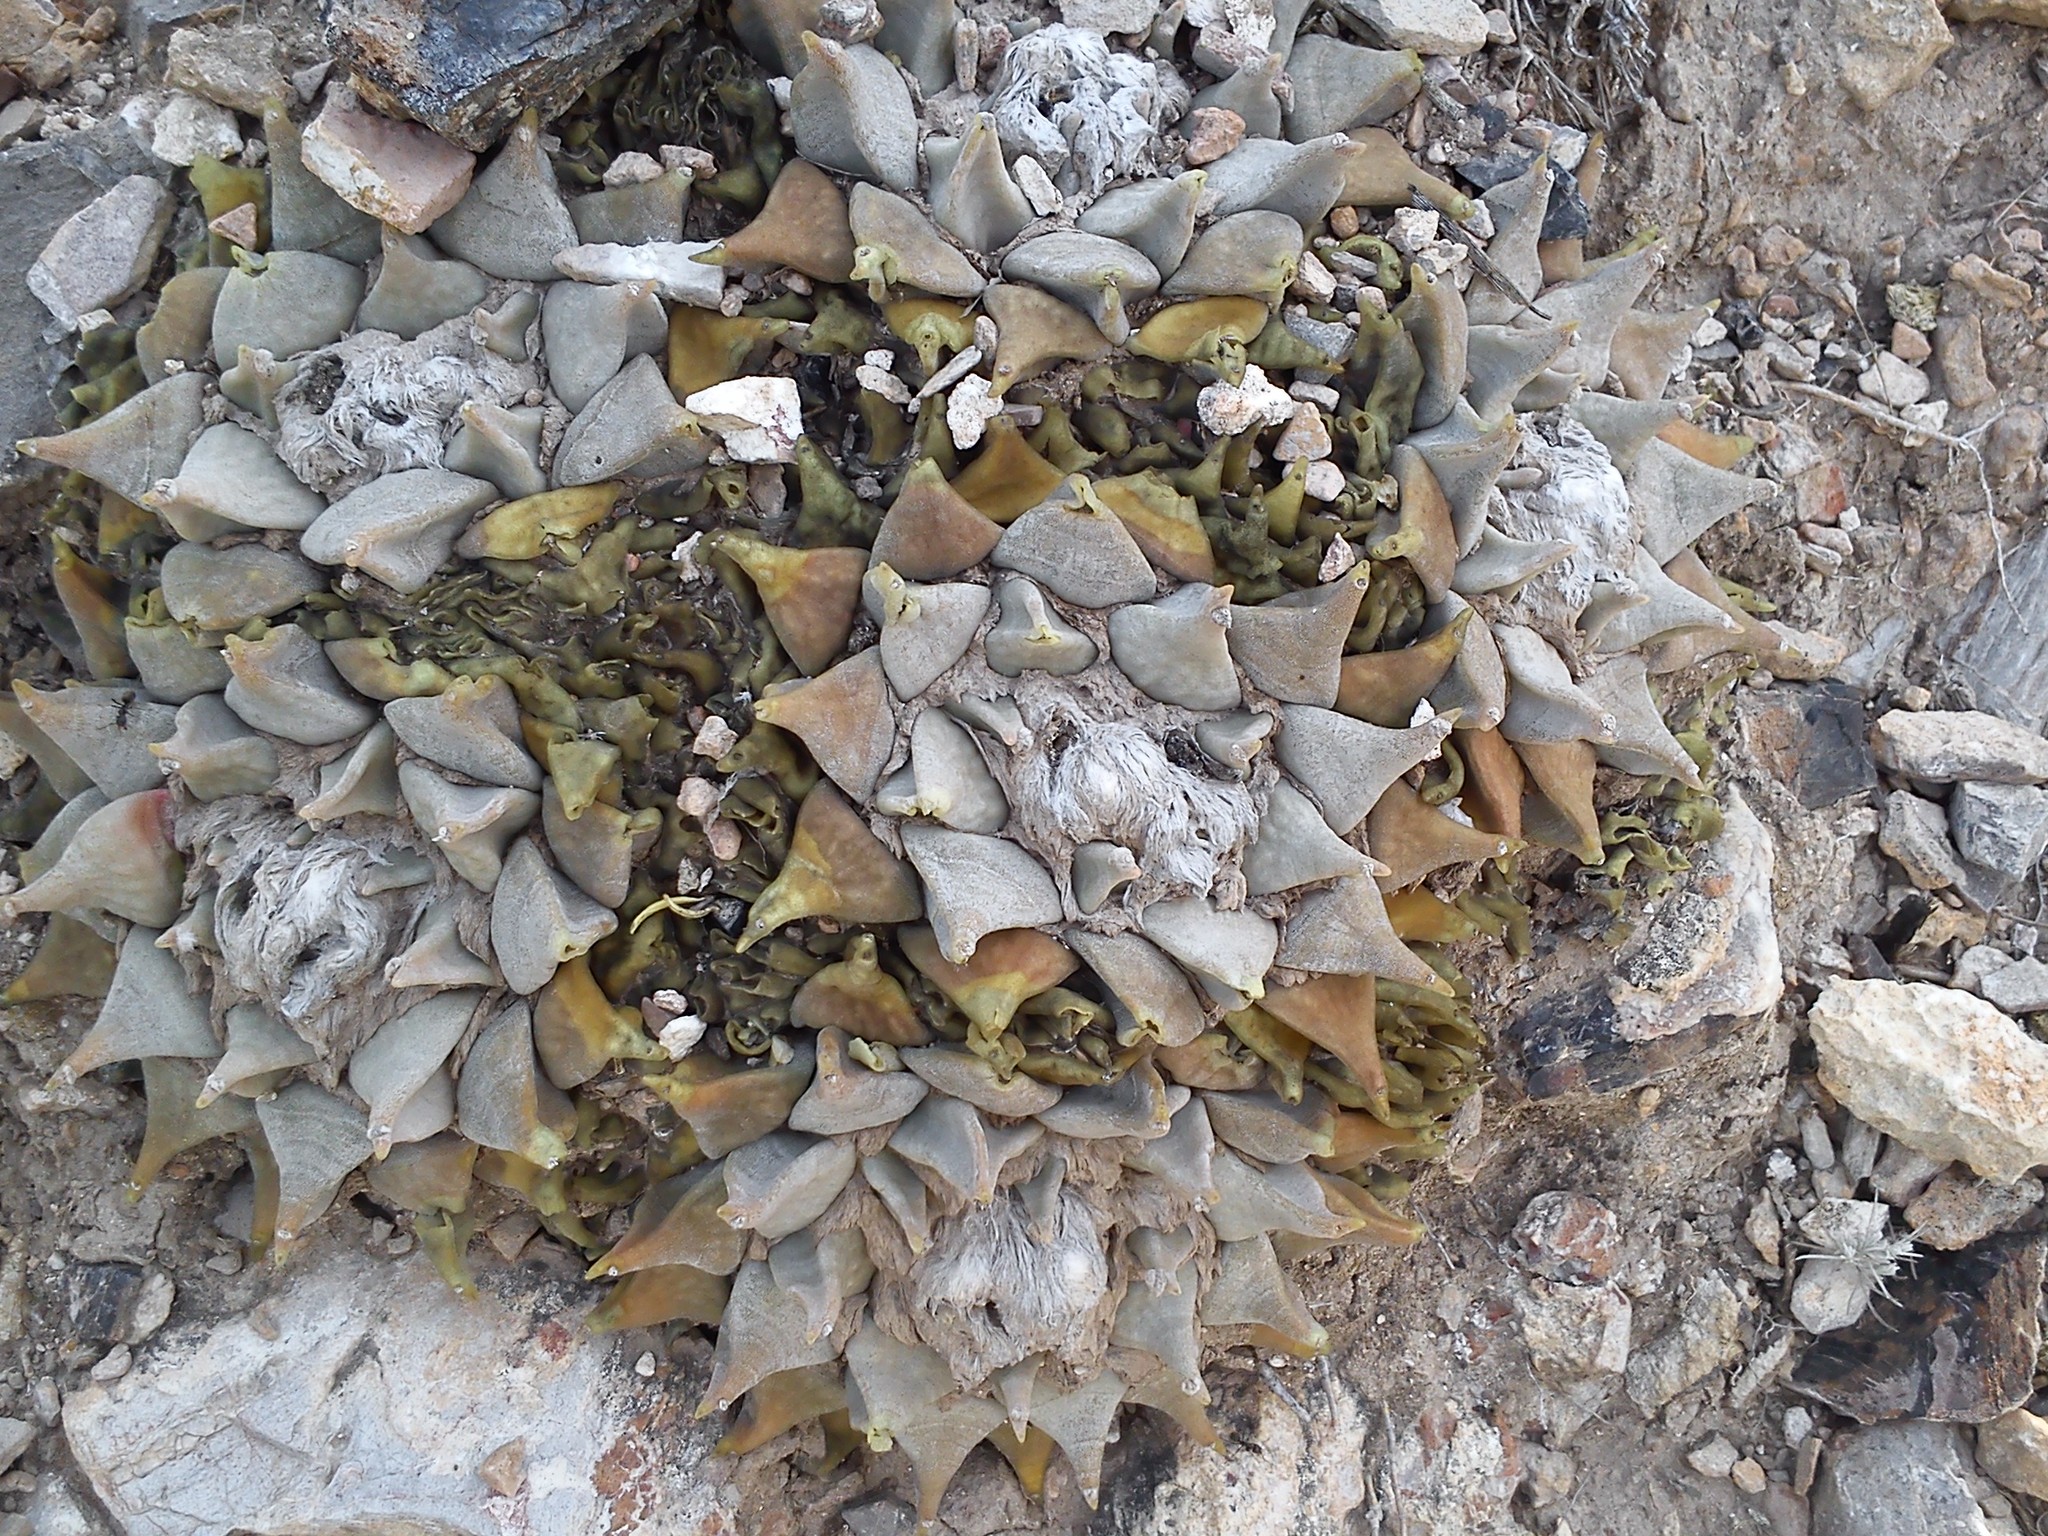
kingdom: Plantae
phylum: Tracheophyta
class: Magnoliopsida
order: Caryophyllales
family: Cactaceae
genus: Ariocarpus
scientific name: Ariocarpus retusus
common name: Seven stars
